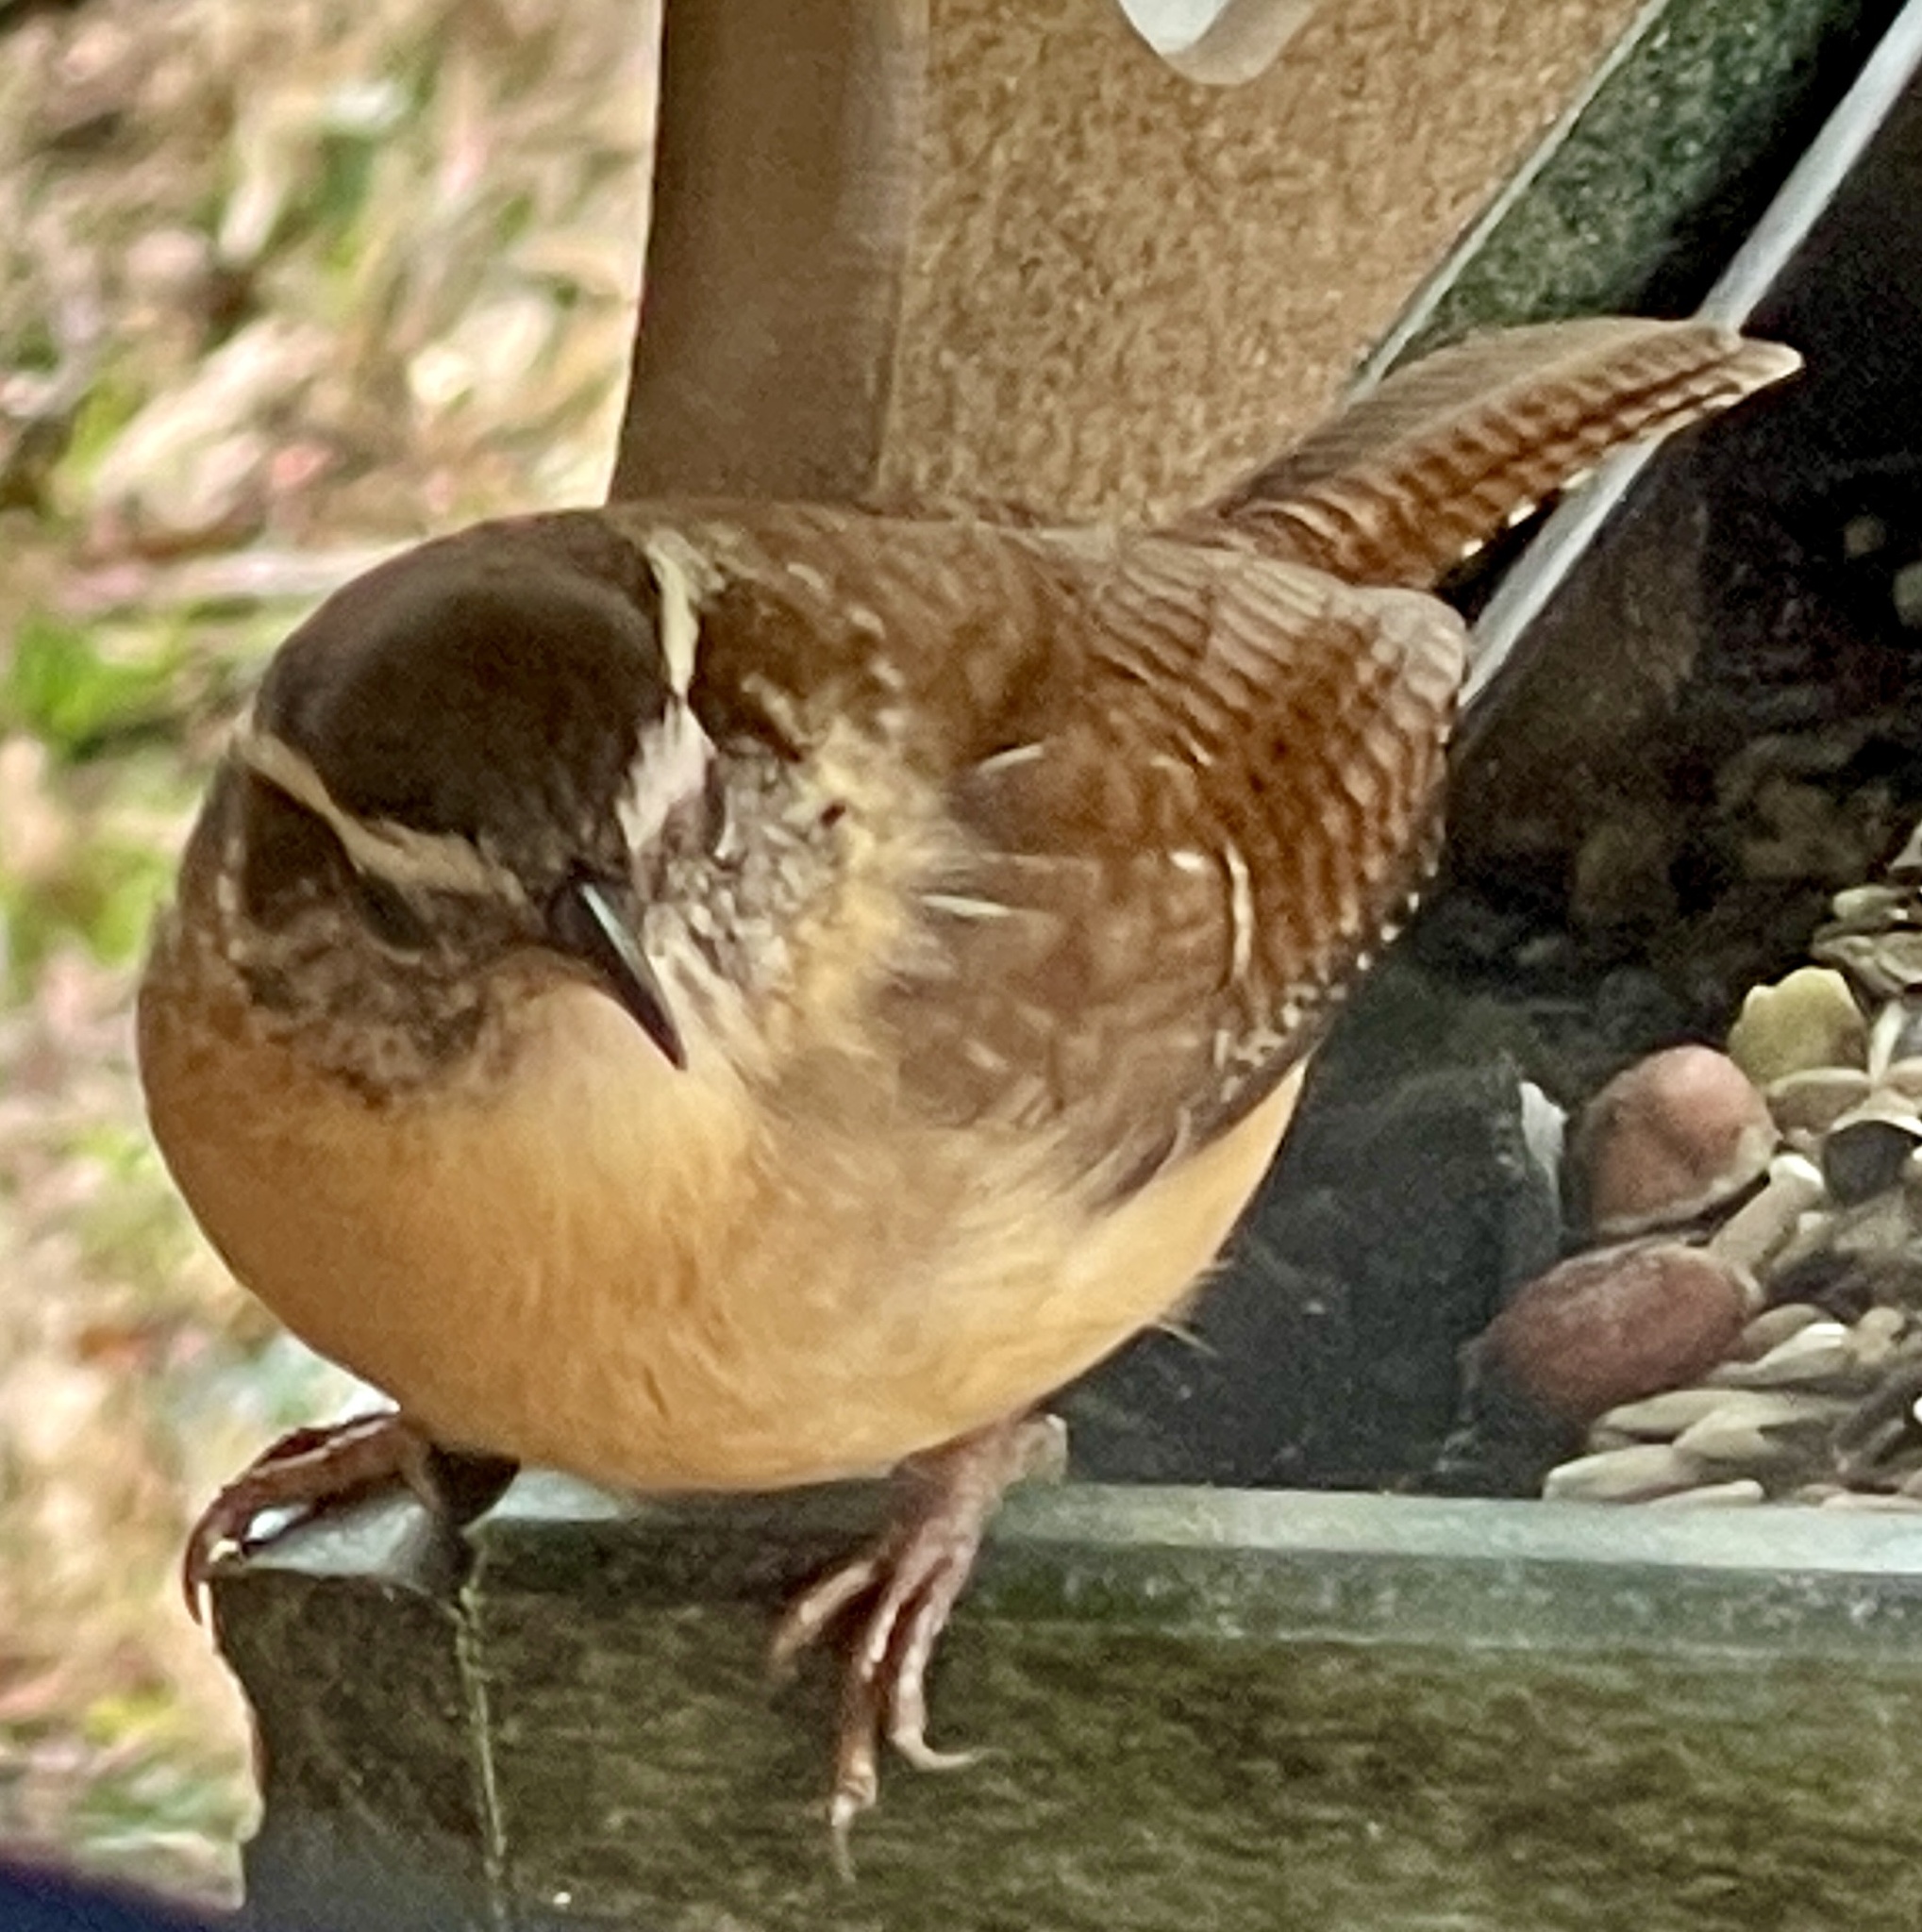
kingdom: Animalia
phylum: Chordata
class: Aves
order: Passeriformes
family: Troglodytidae
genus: Thryothorus
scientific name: Thryothorus ludovicianus
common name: Carolina wren
